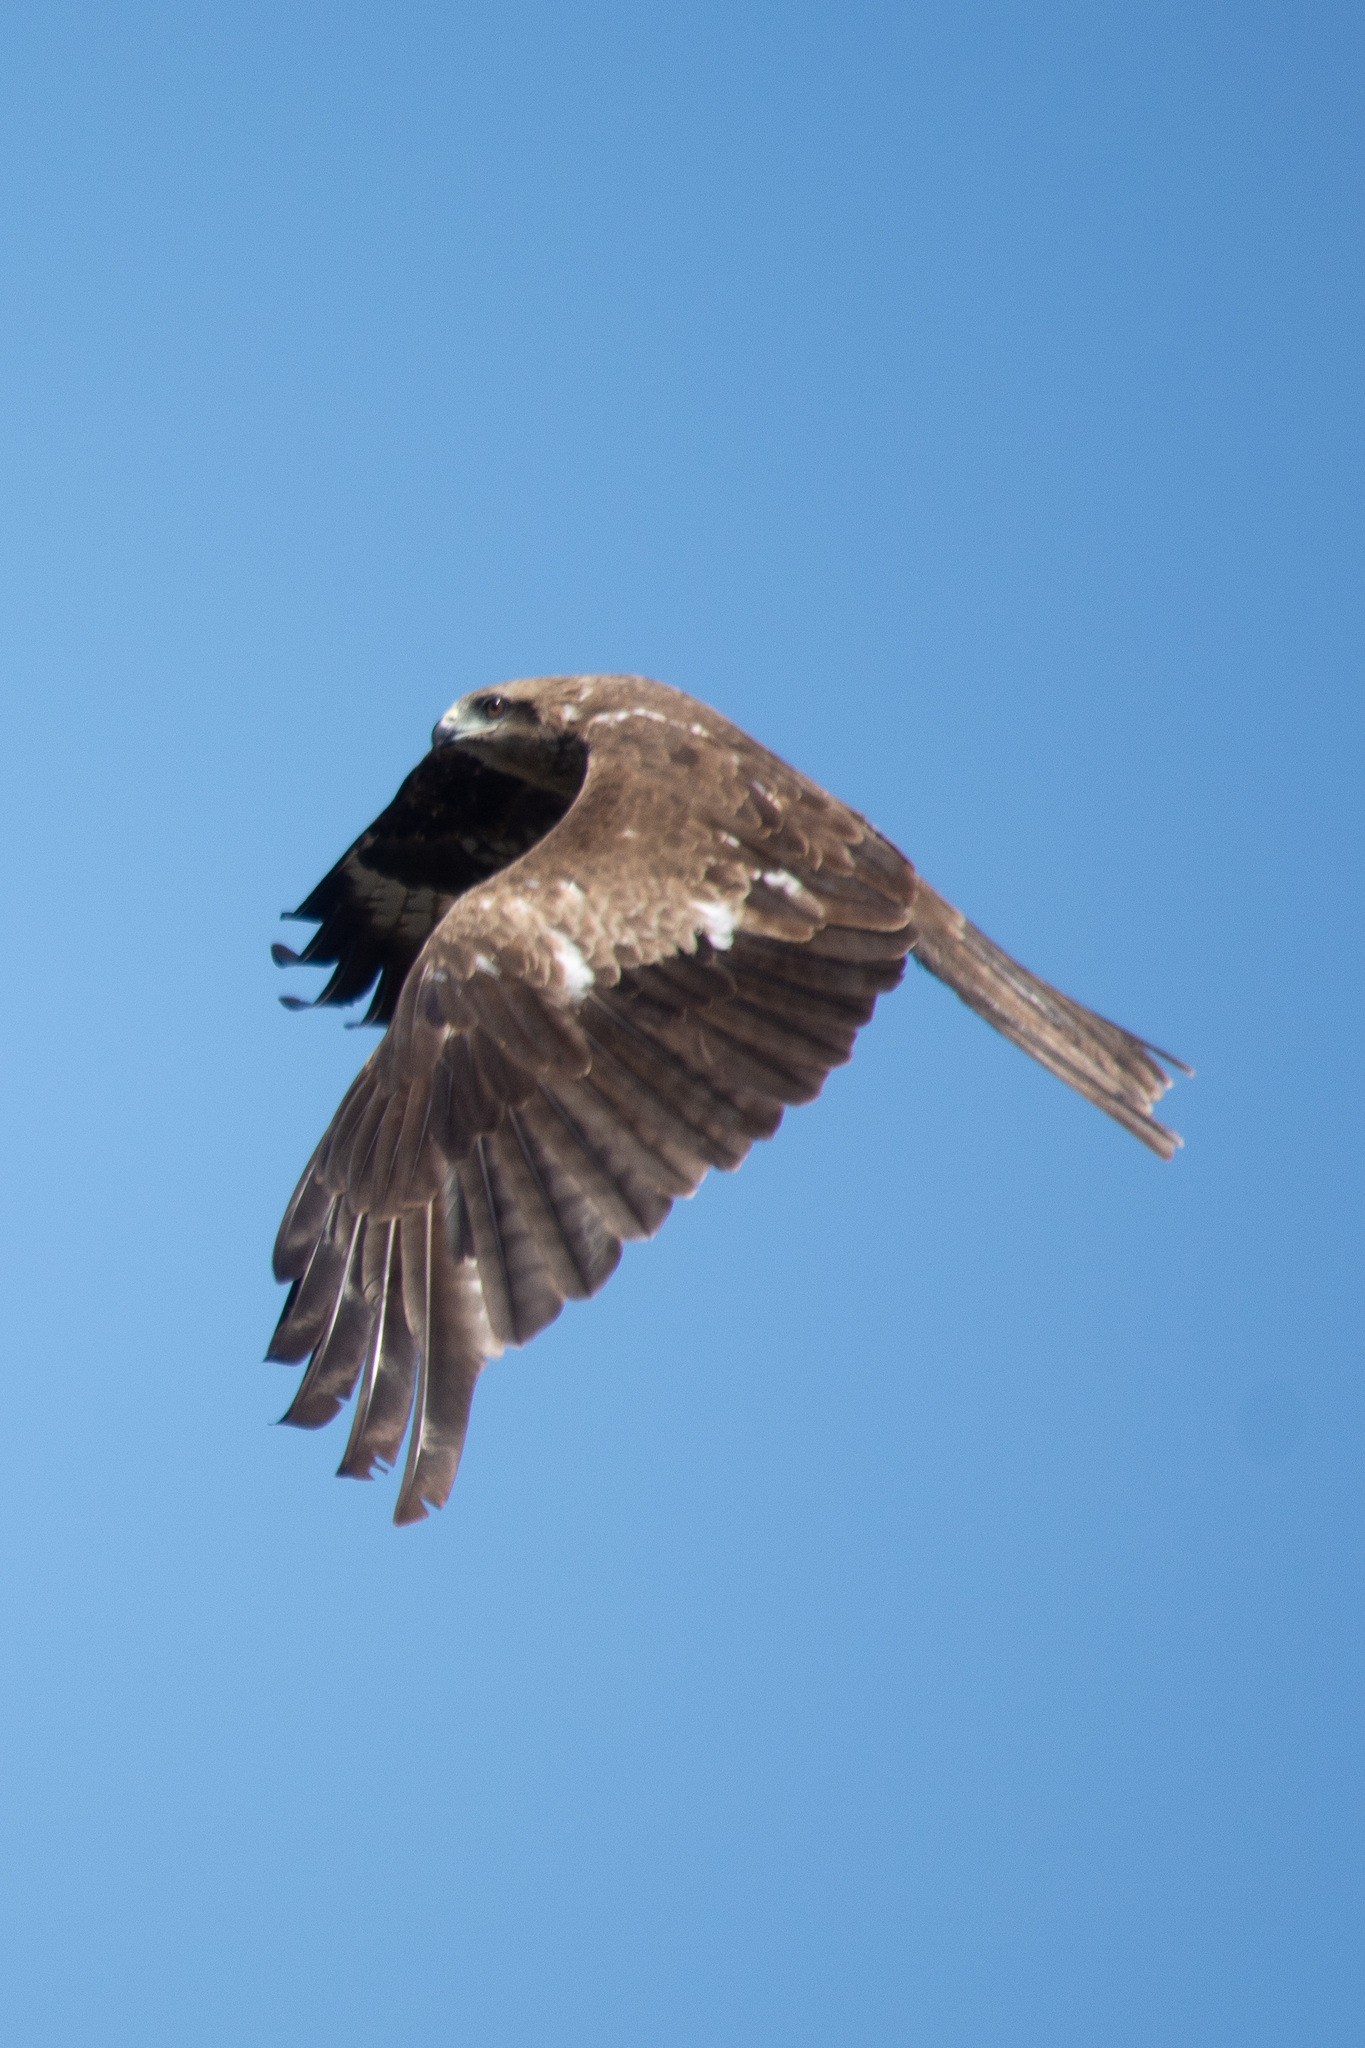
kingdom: Animalia
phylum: Chordata
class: Aves
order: Accipitriformes
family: Accipitridae
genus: Milvus
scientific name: Milvus migrans
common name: Black kite
